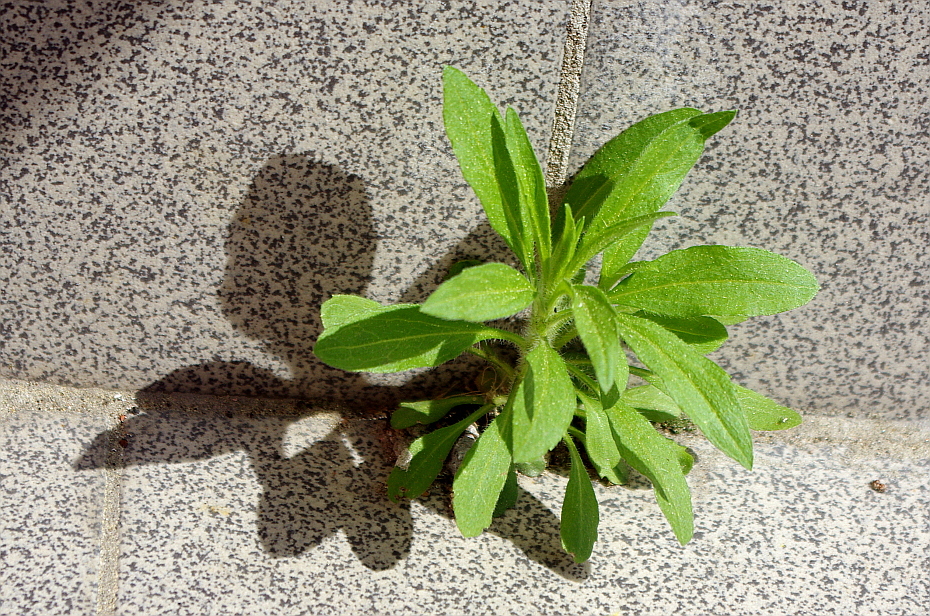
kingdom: Plantae
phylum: Tracheophyta
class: Magnoliopsida
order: Asterales
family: Asteraceae
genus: Erigeron
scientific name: Erigeron canadensis
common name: Canadian fleabane
